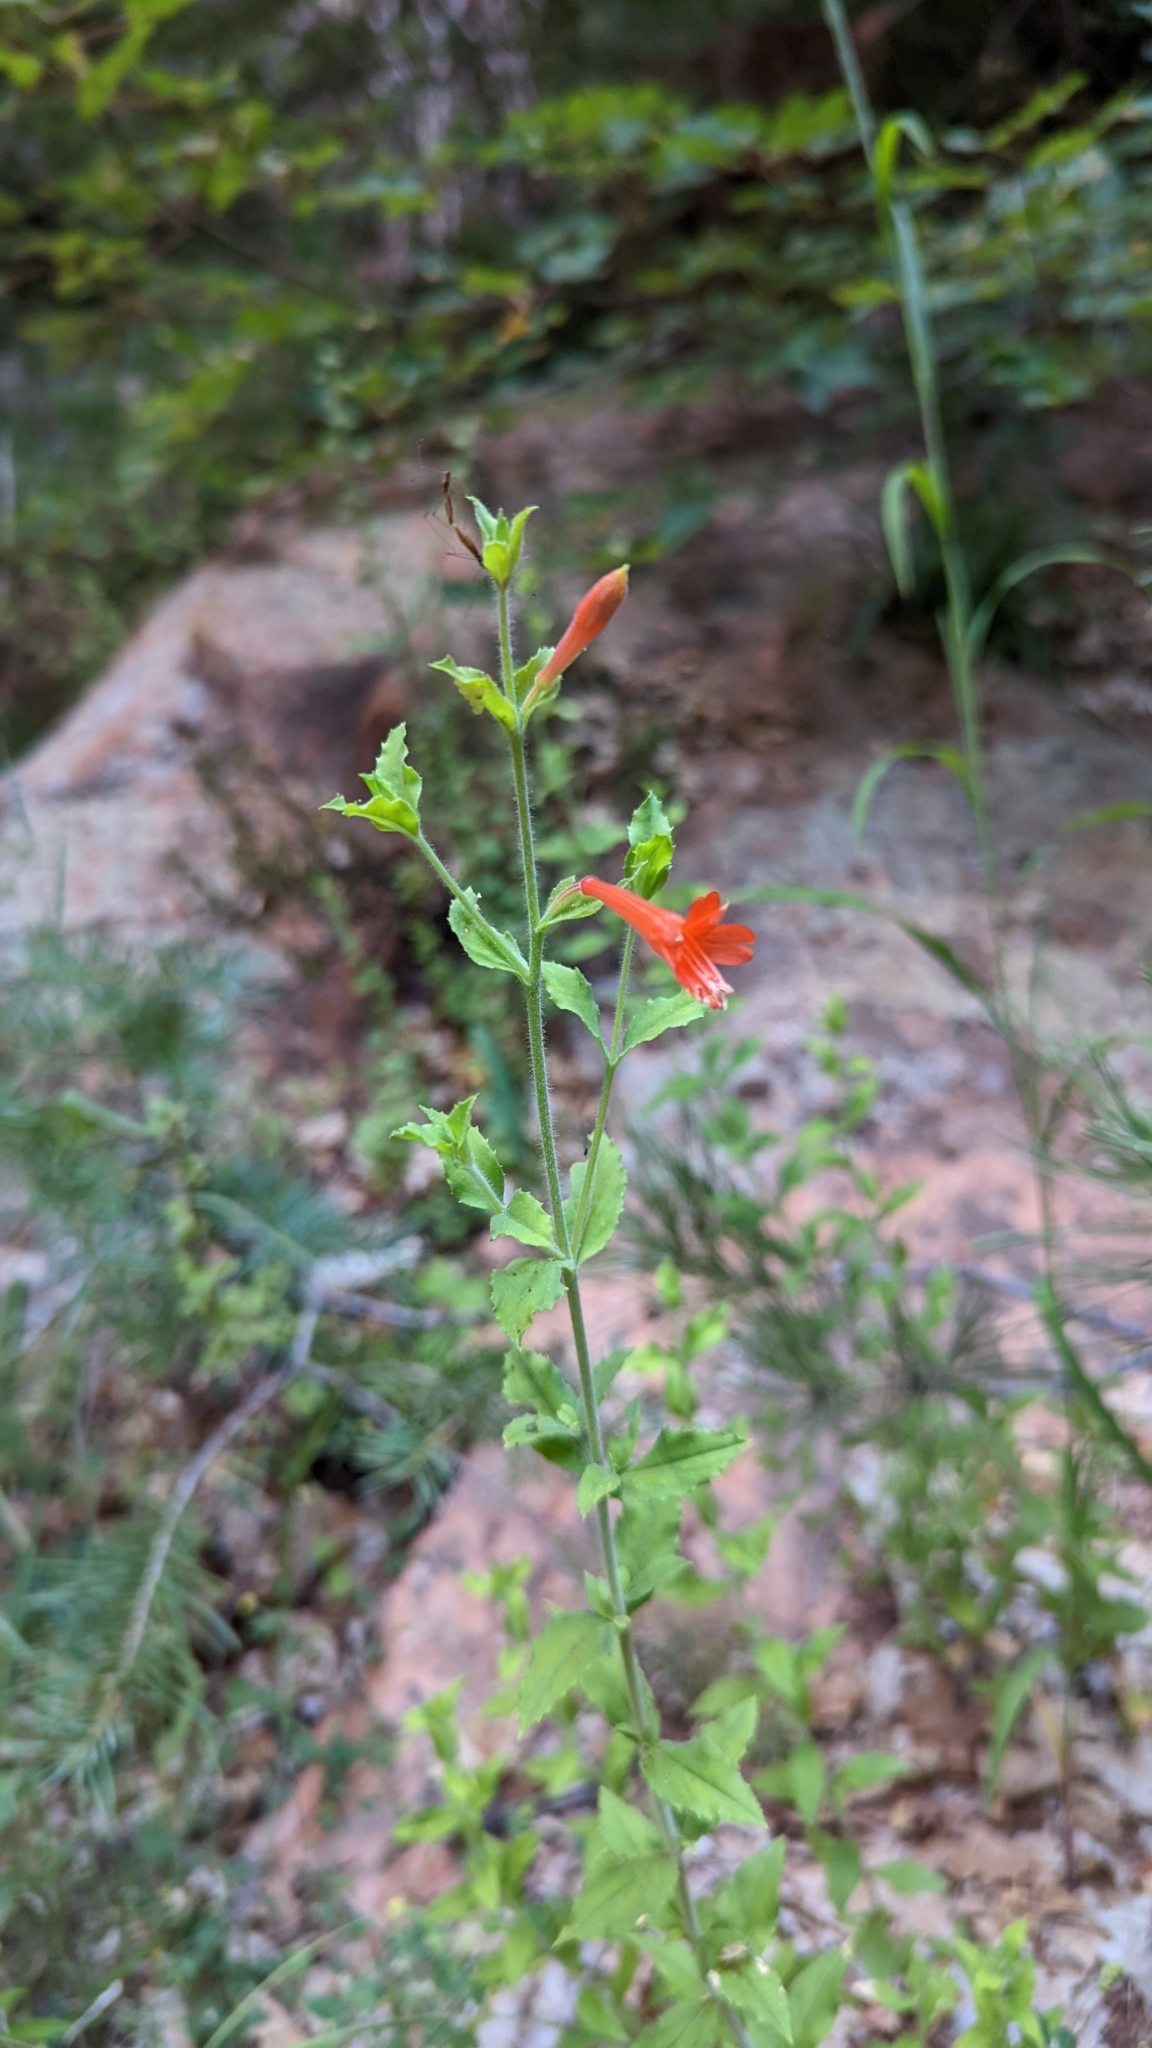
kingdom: Plantae
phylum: Tracheophyta
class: Magnoliopsida
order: Myrtales
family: Onagraceae
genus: Epilobium
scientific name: Epilobium canum
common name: California-fuchsia
